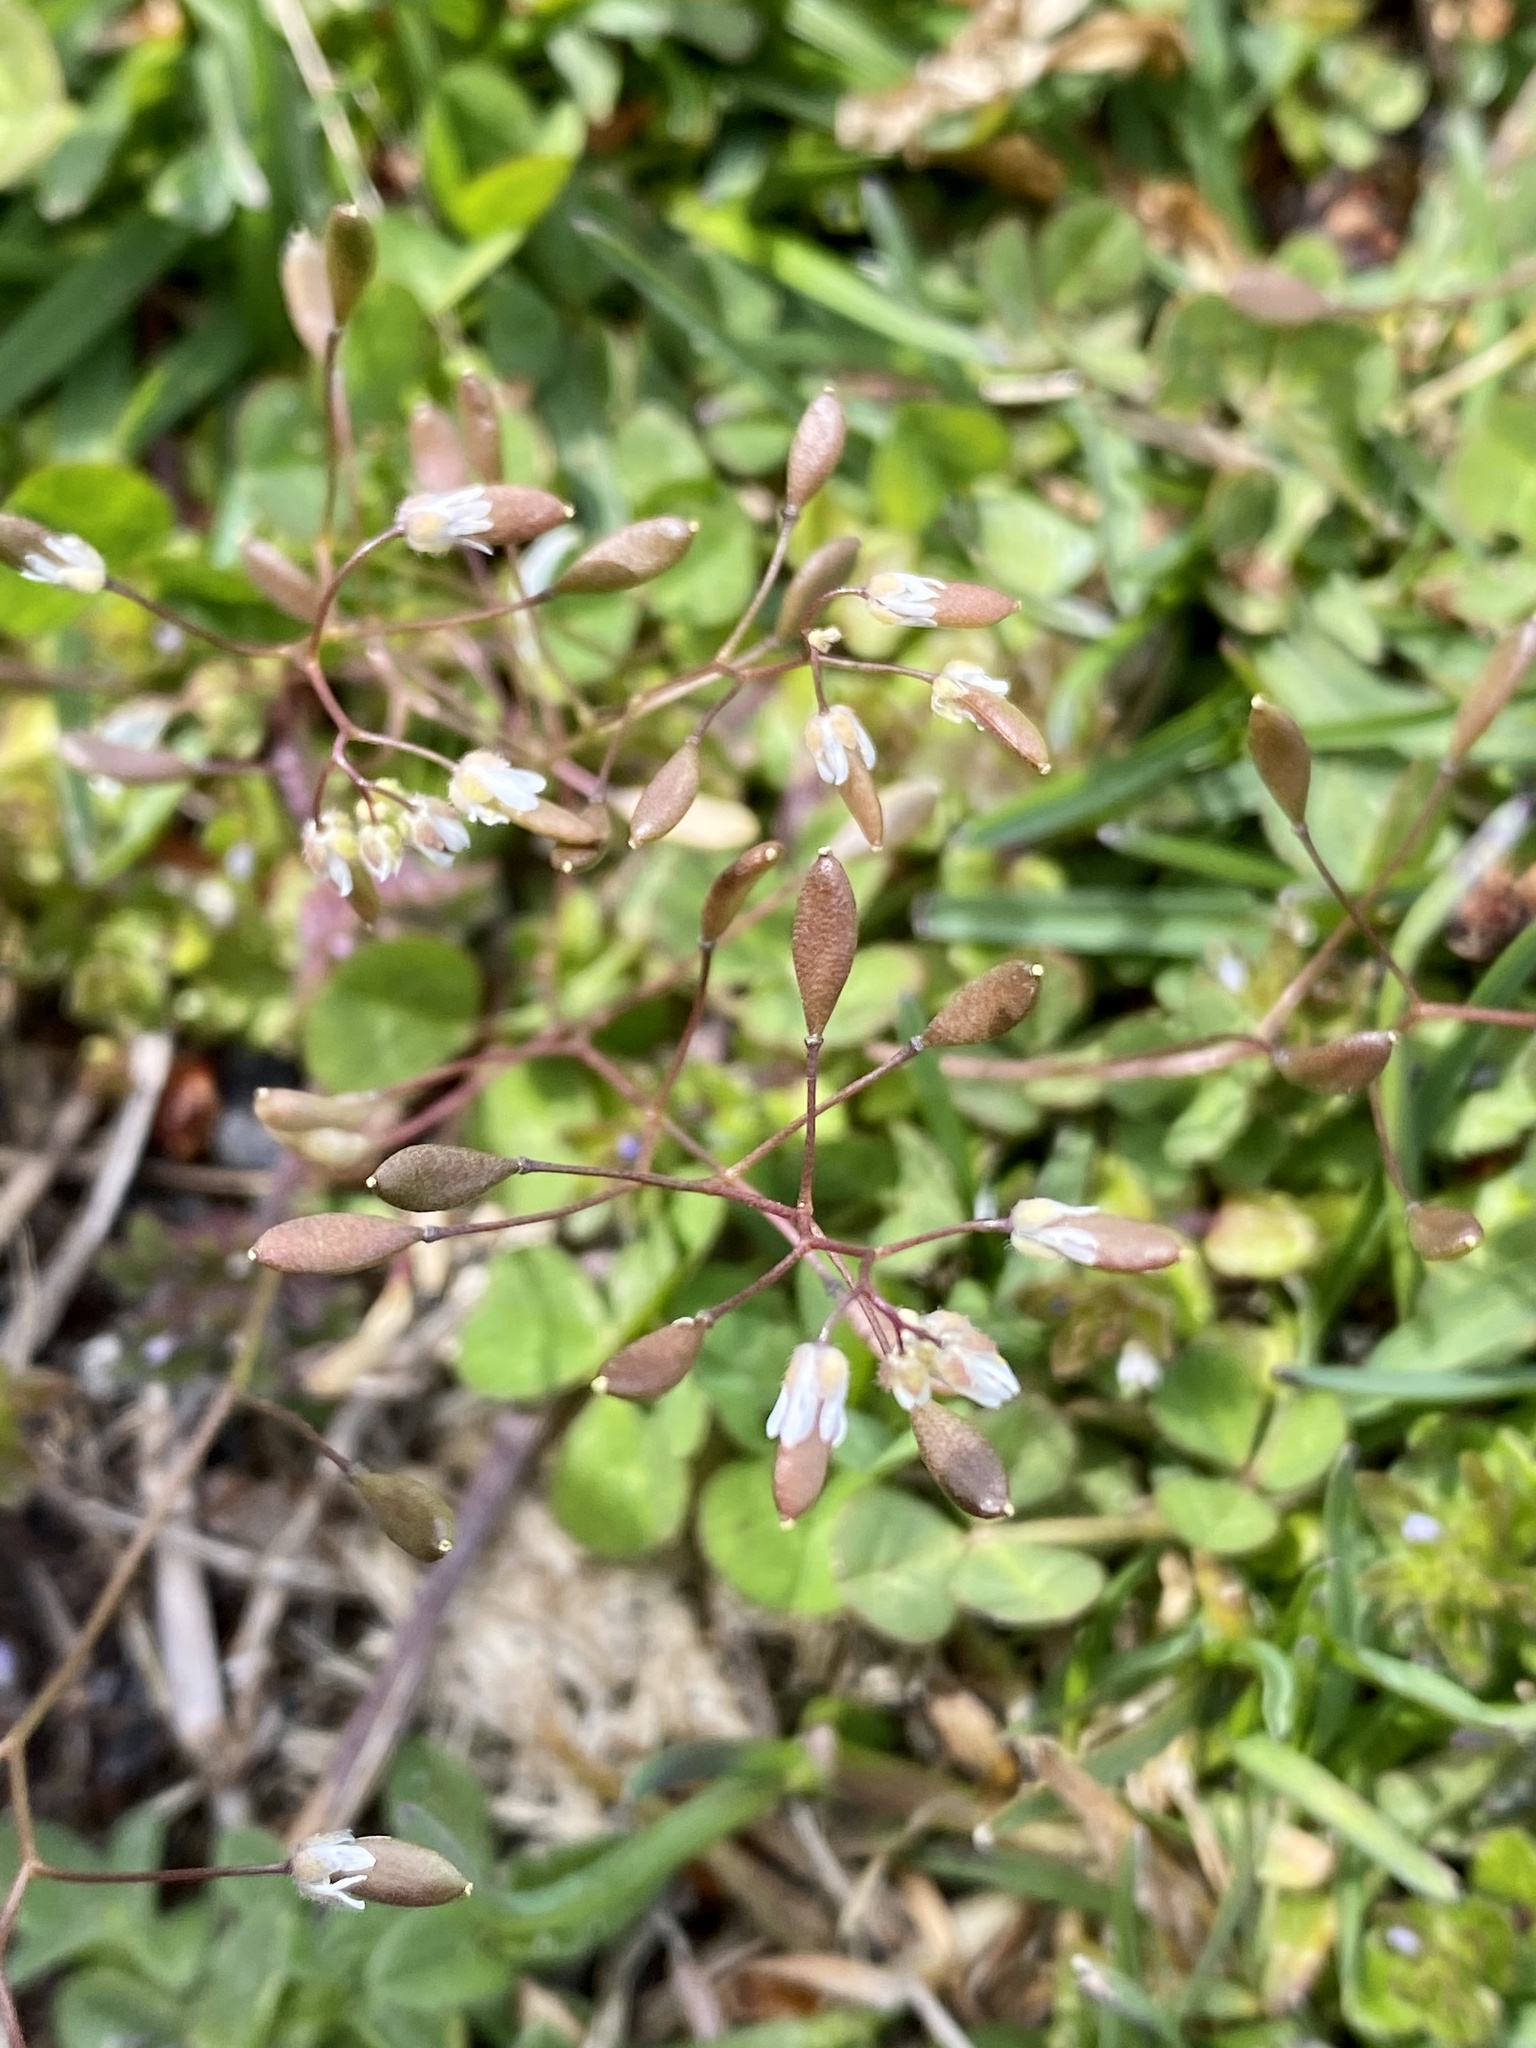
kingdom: Plantae
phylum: Tracheophyta
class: Magnoliopsida
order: Brassicales
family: Brassicaceae
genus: Draba
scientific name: Draba verna
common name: Spring draba
